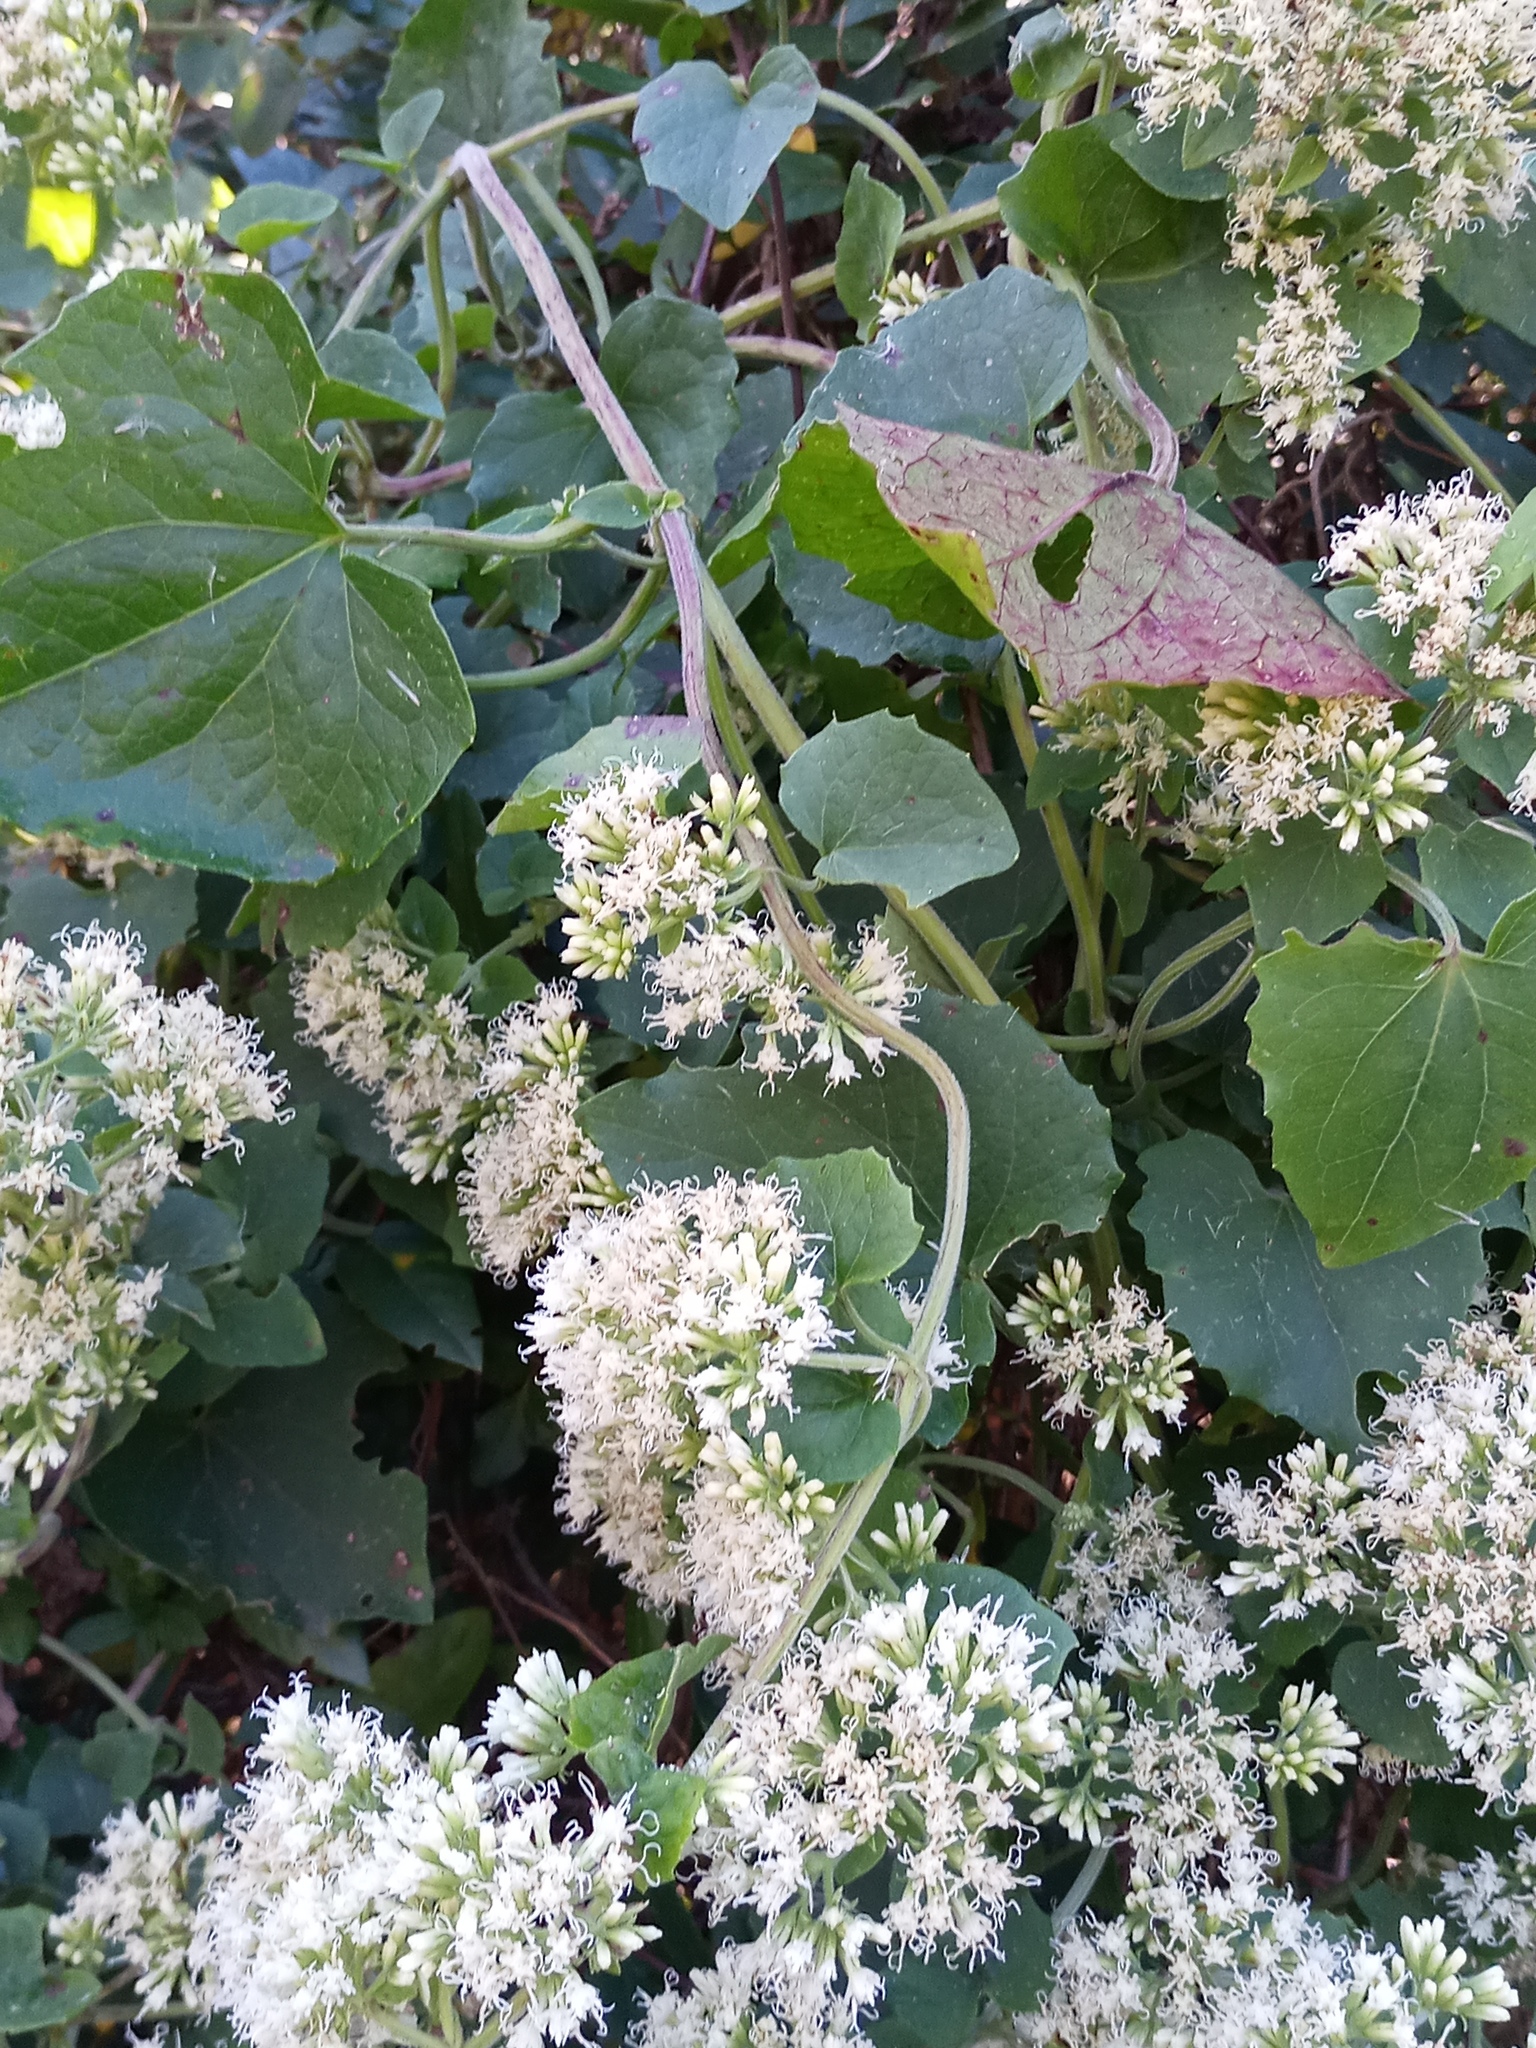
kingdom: Plantae
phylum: Tracheophyta
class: Magnoliopsida
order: Asterales
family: Asteraceae
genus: Mikania
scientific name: Mikania cordifolia
